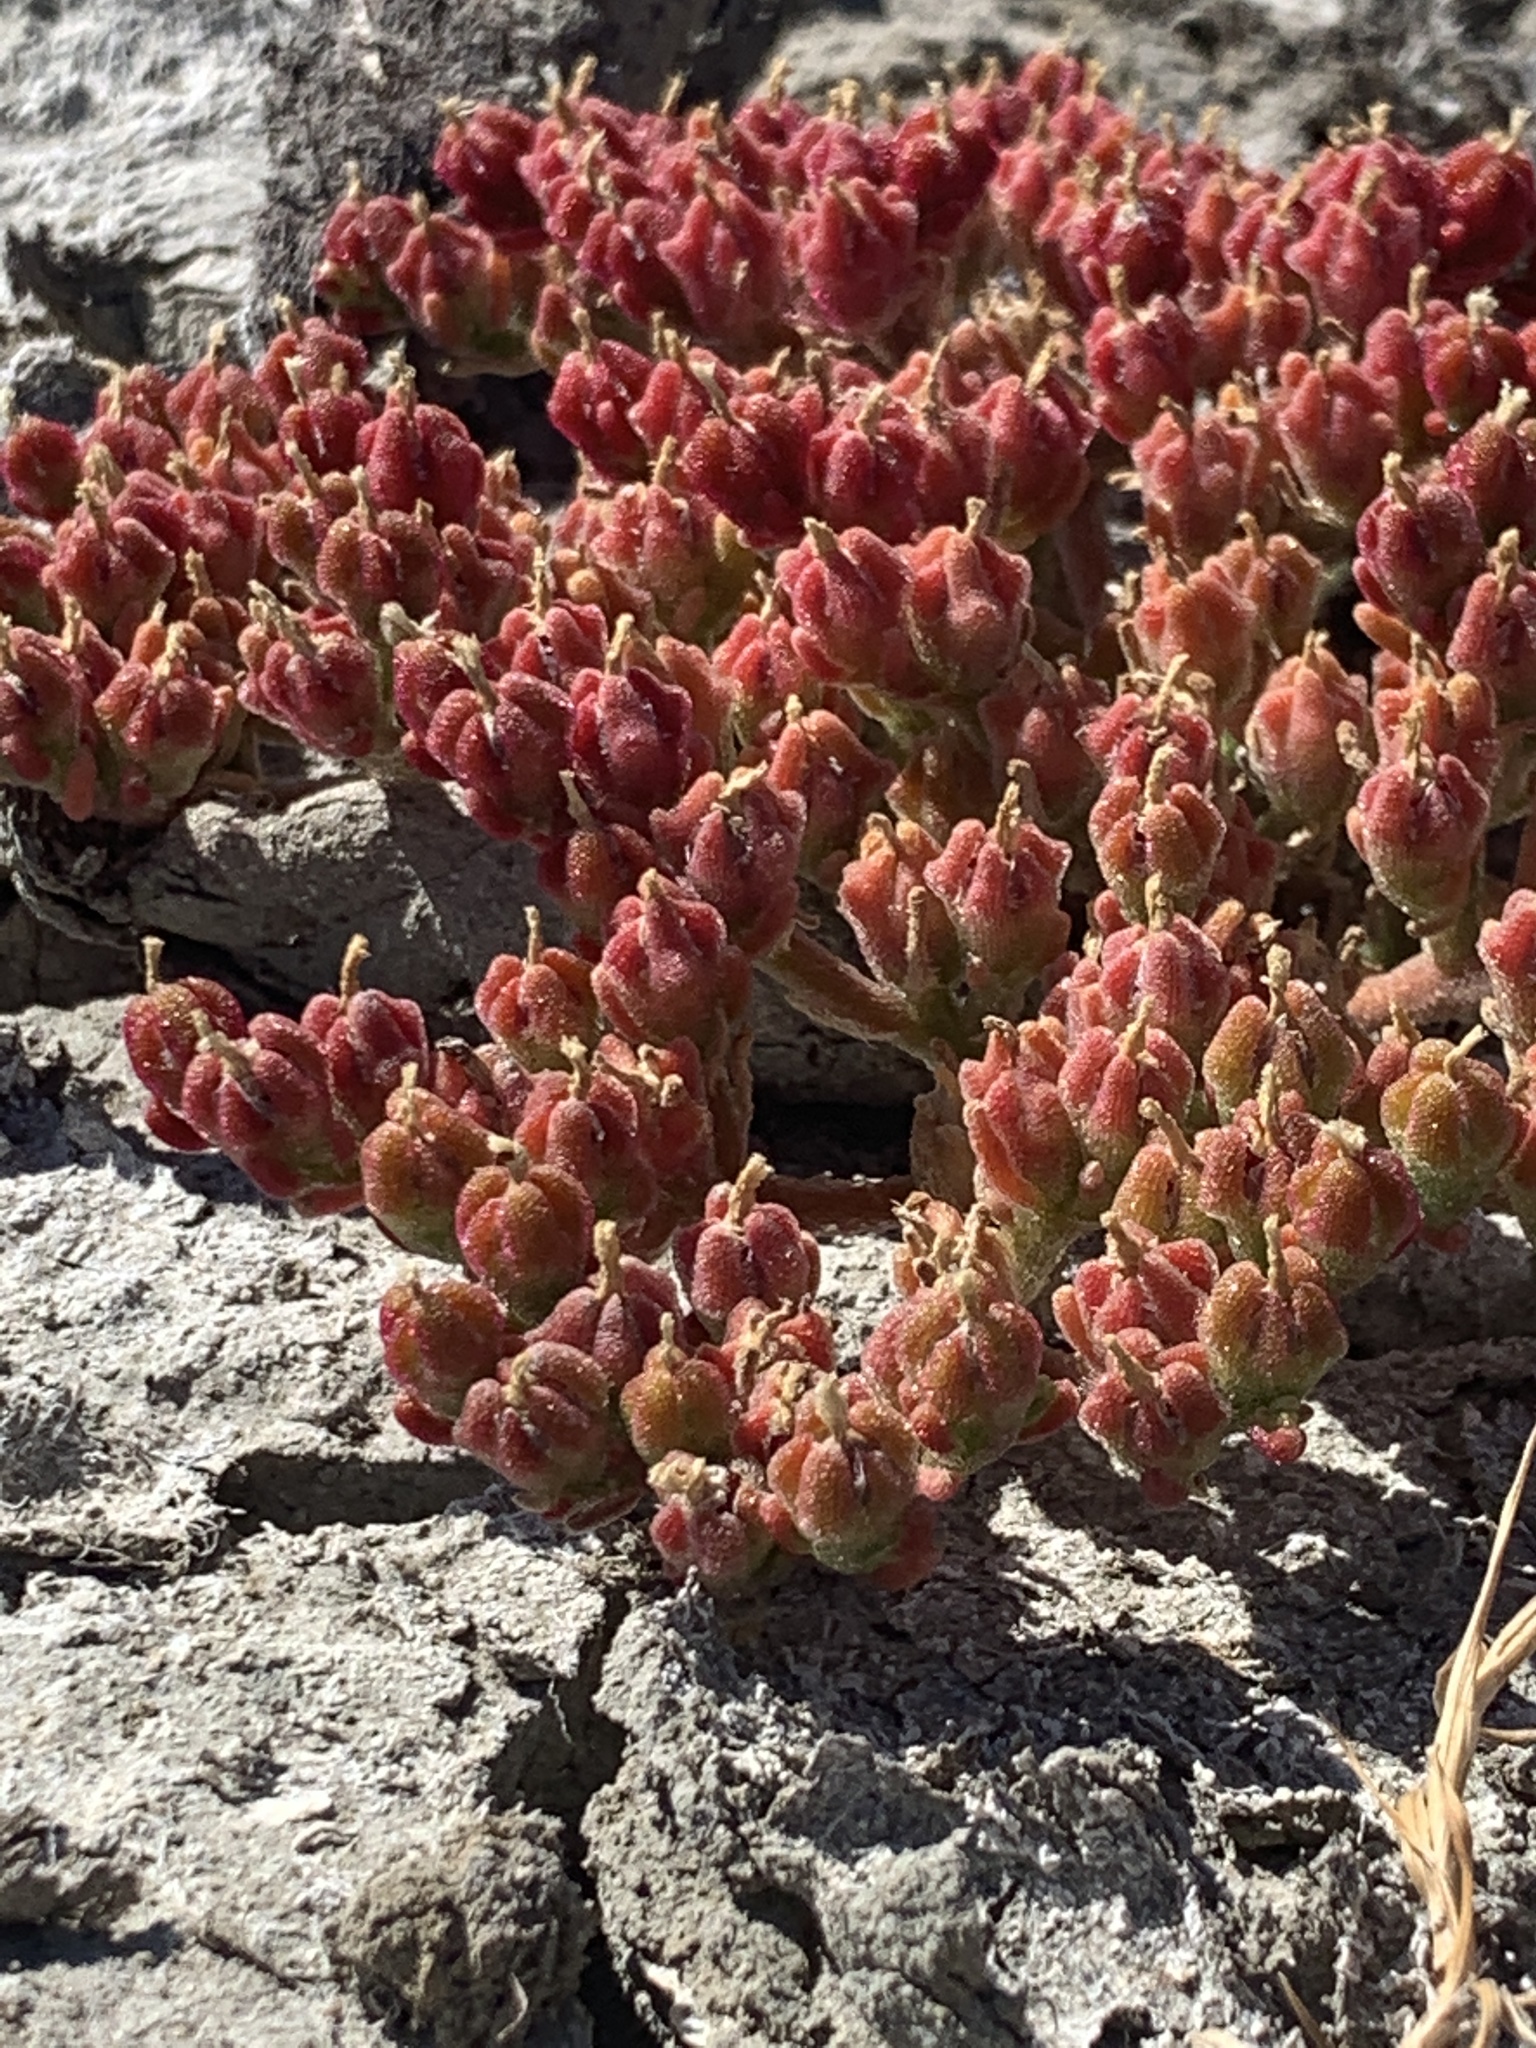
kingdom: Plantae
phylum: Tracheophyta
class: Magnoliopsida
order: Caryophyllales
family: Aizoaceae
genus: Mesembryanthemum
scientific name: Mesembryanthemum nodiflorum
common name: Slenderleaf iceplant
